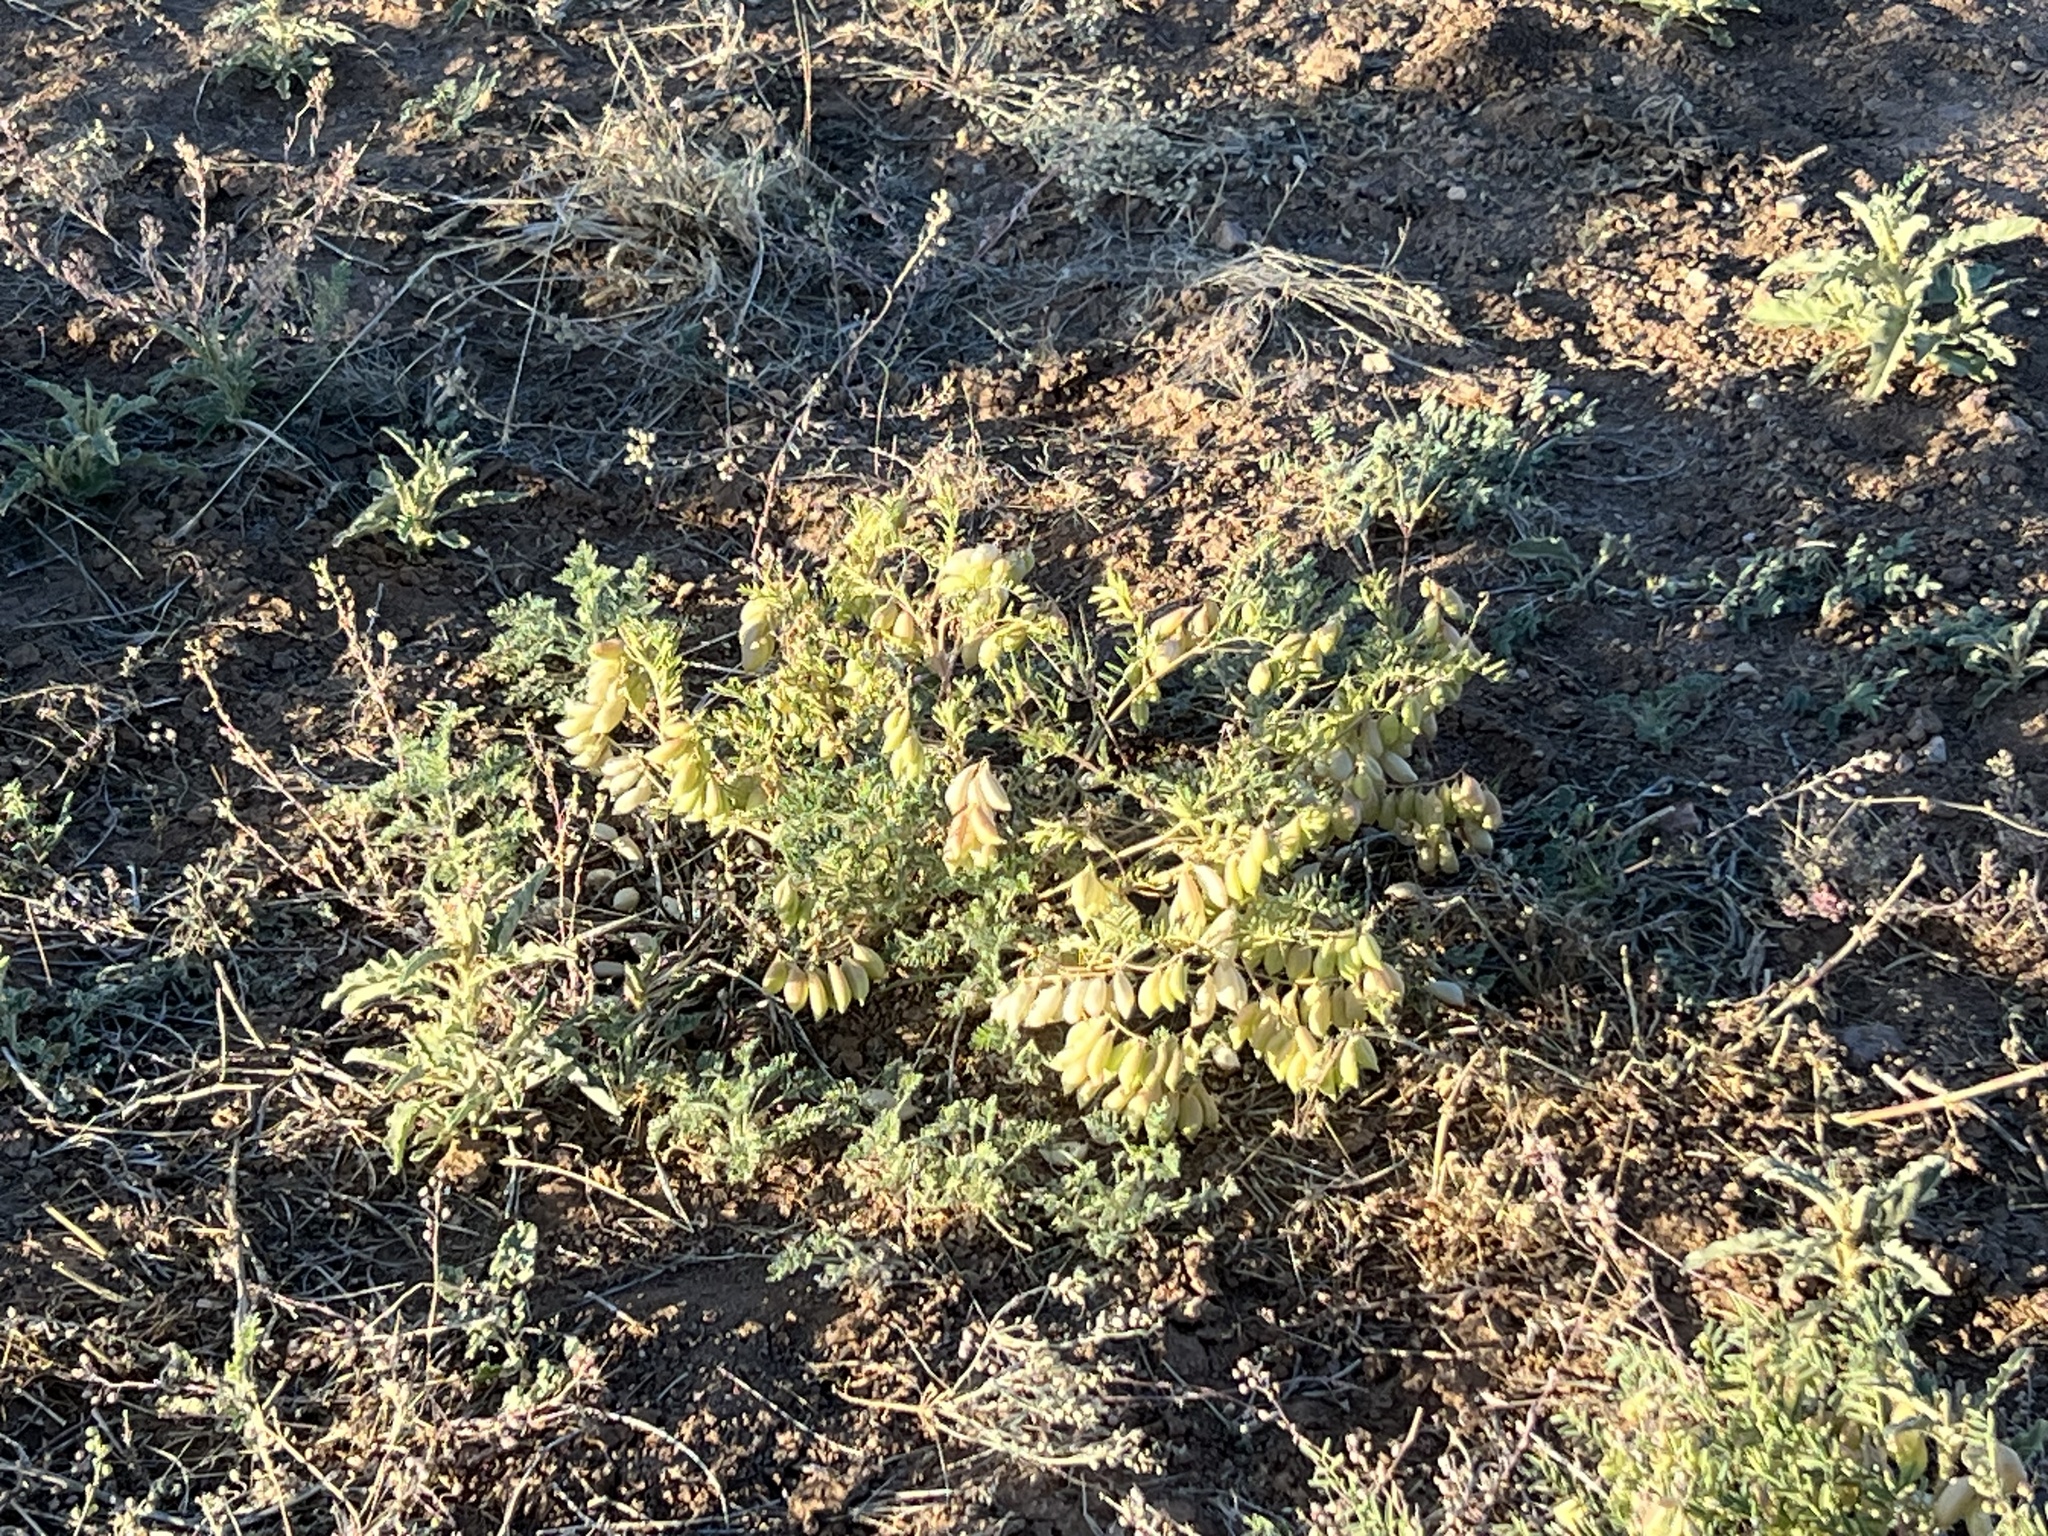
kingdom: Plantae
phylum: Tracheophyta
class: Magnoliopsida
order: Fabales
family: Fabaceae
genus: Astragalus
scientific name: Astragalus allochrous
